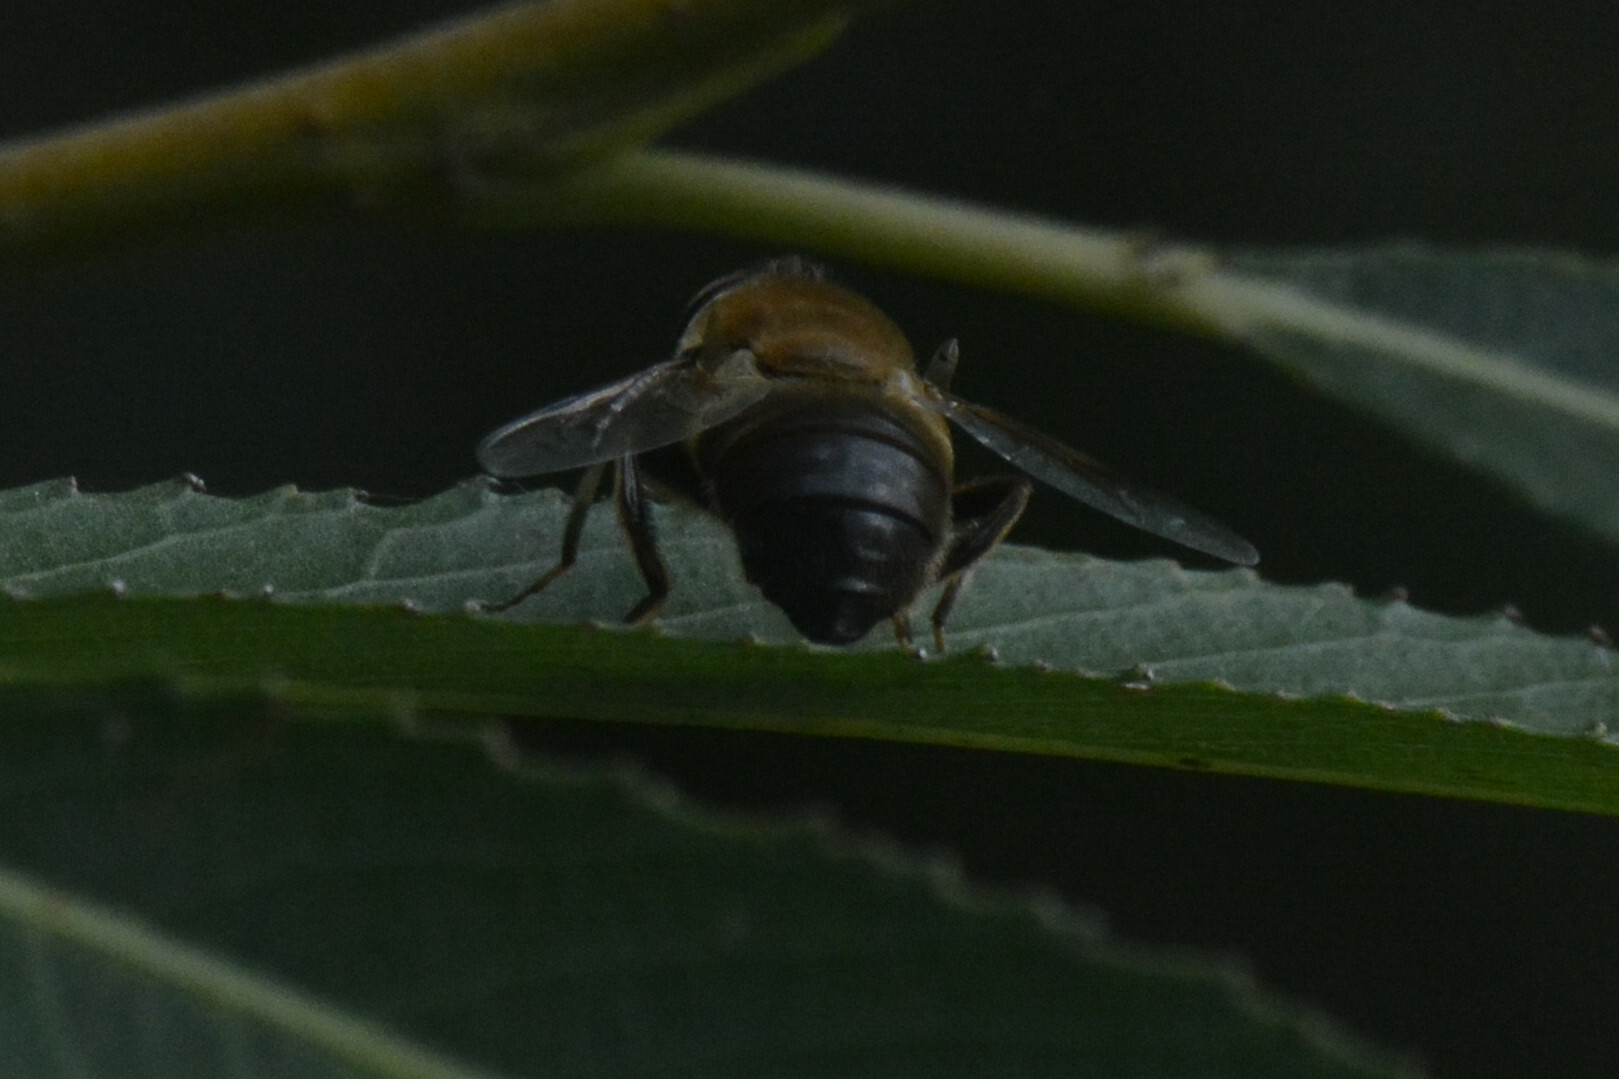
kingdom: Animalia
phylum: Arthropoda
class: Insecta
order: Diptera
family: Syrphidae
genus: Eristalis
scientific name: Eristalis tenax
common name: Drone fly
